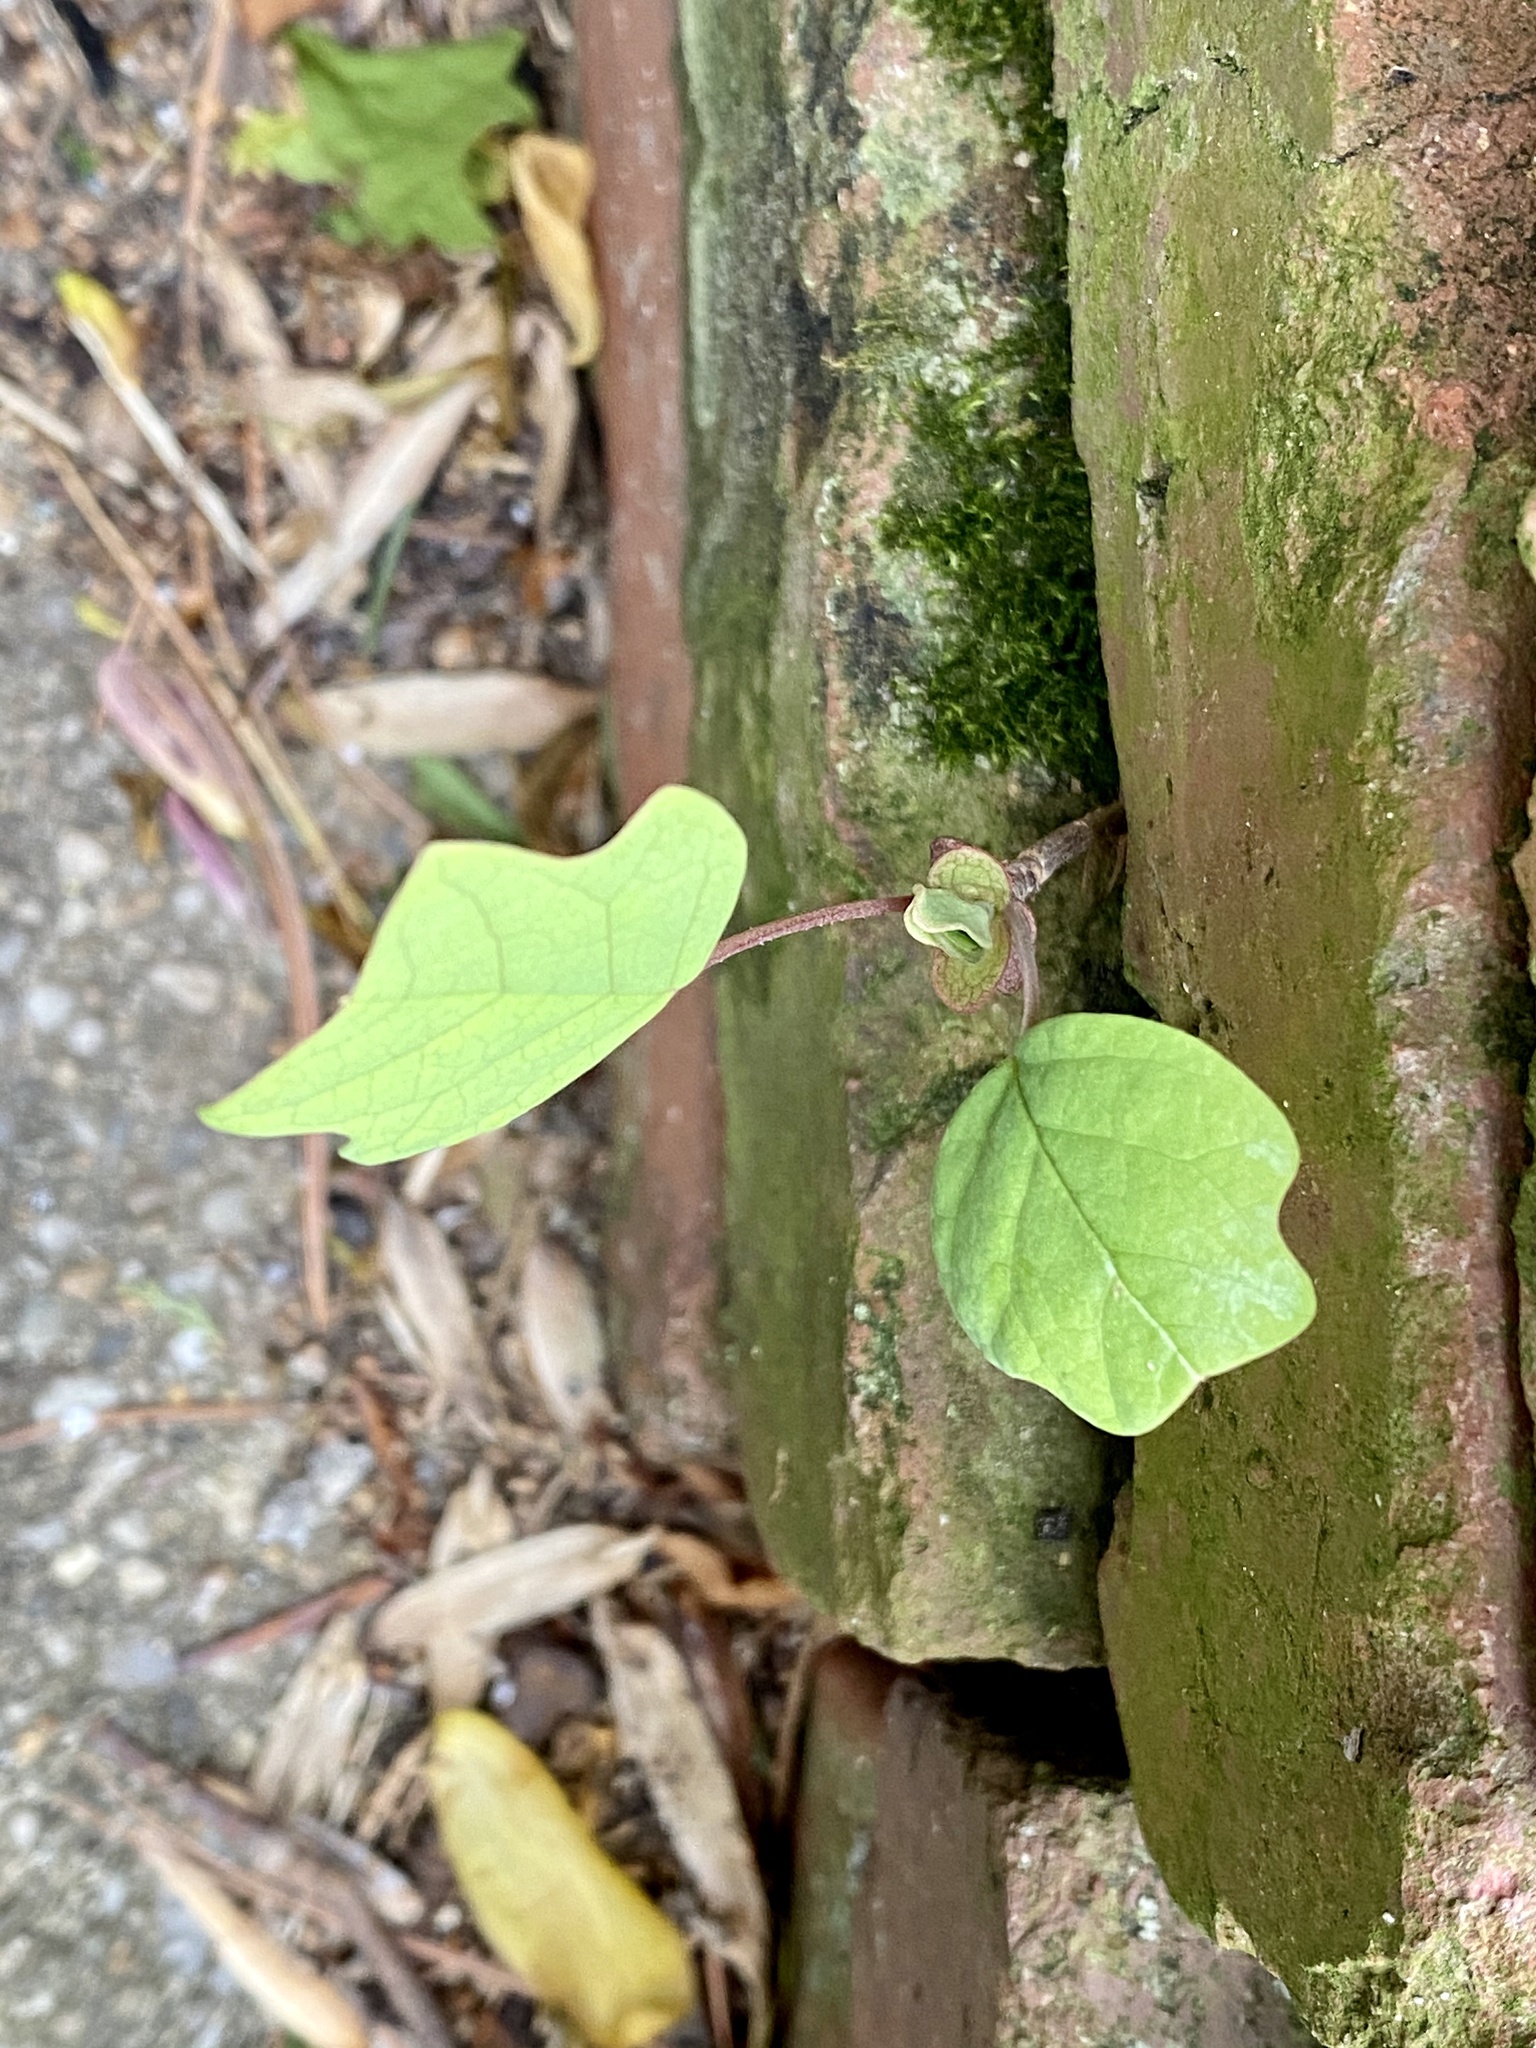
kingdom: Plantae
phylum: Tracheophyta
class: Magnoliopsida
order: Magnoliales
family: Magnoliaceae
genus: Liriodendron
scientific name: Liriodendron tulipifera
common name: Tulip tree
